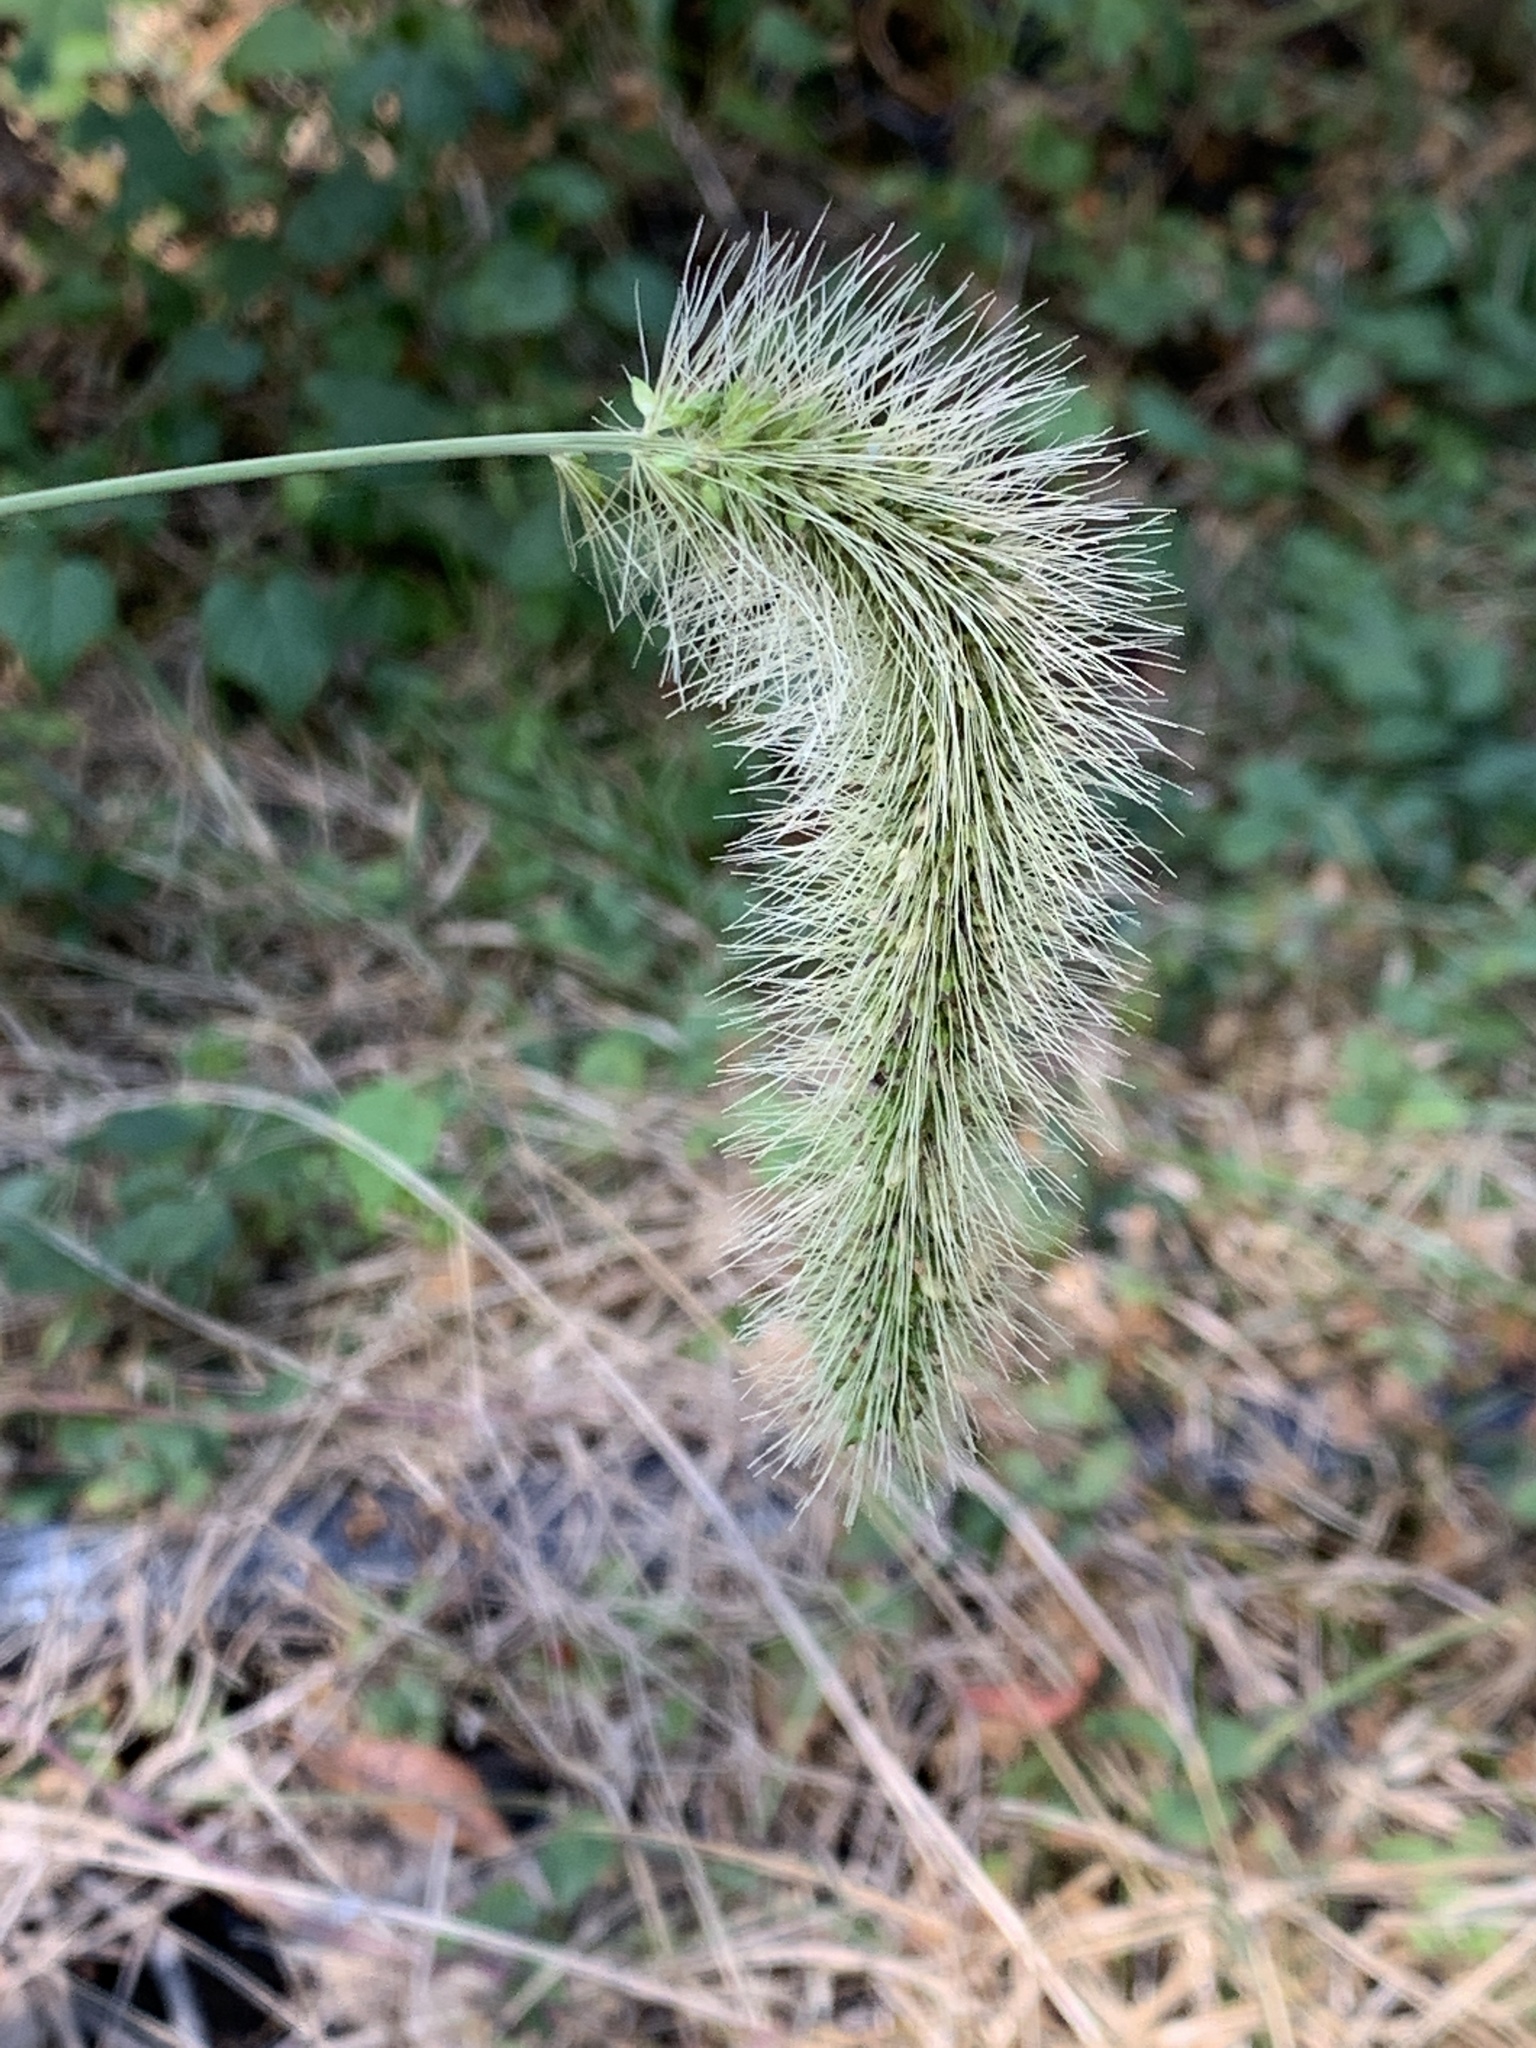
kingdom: Plantae
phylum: Tracheophyta
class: Liliopsida
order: Poales
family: Poaceae
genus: Setaria
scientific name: Setaria faberi
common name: Nodding bristle-grass
